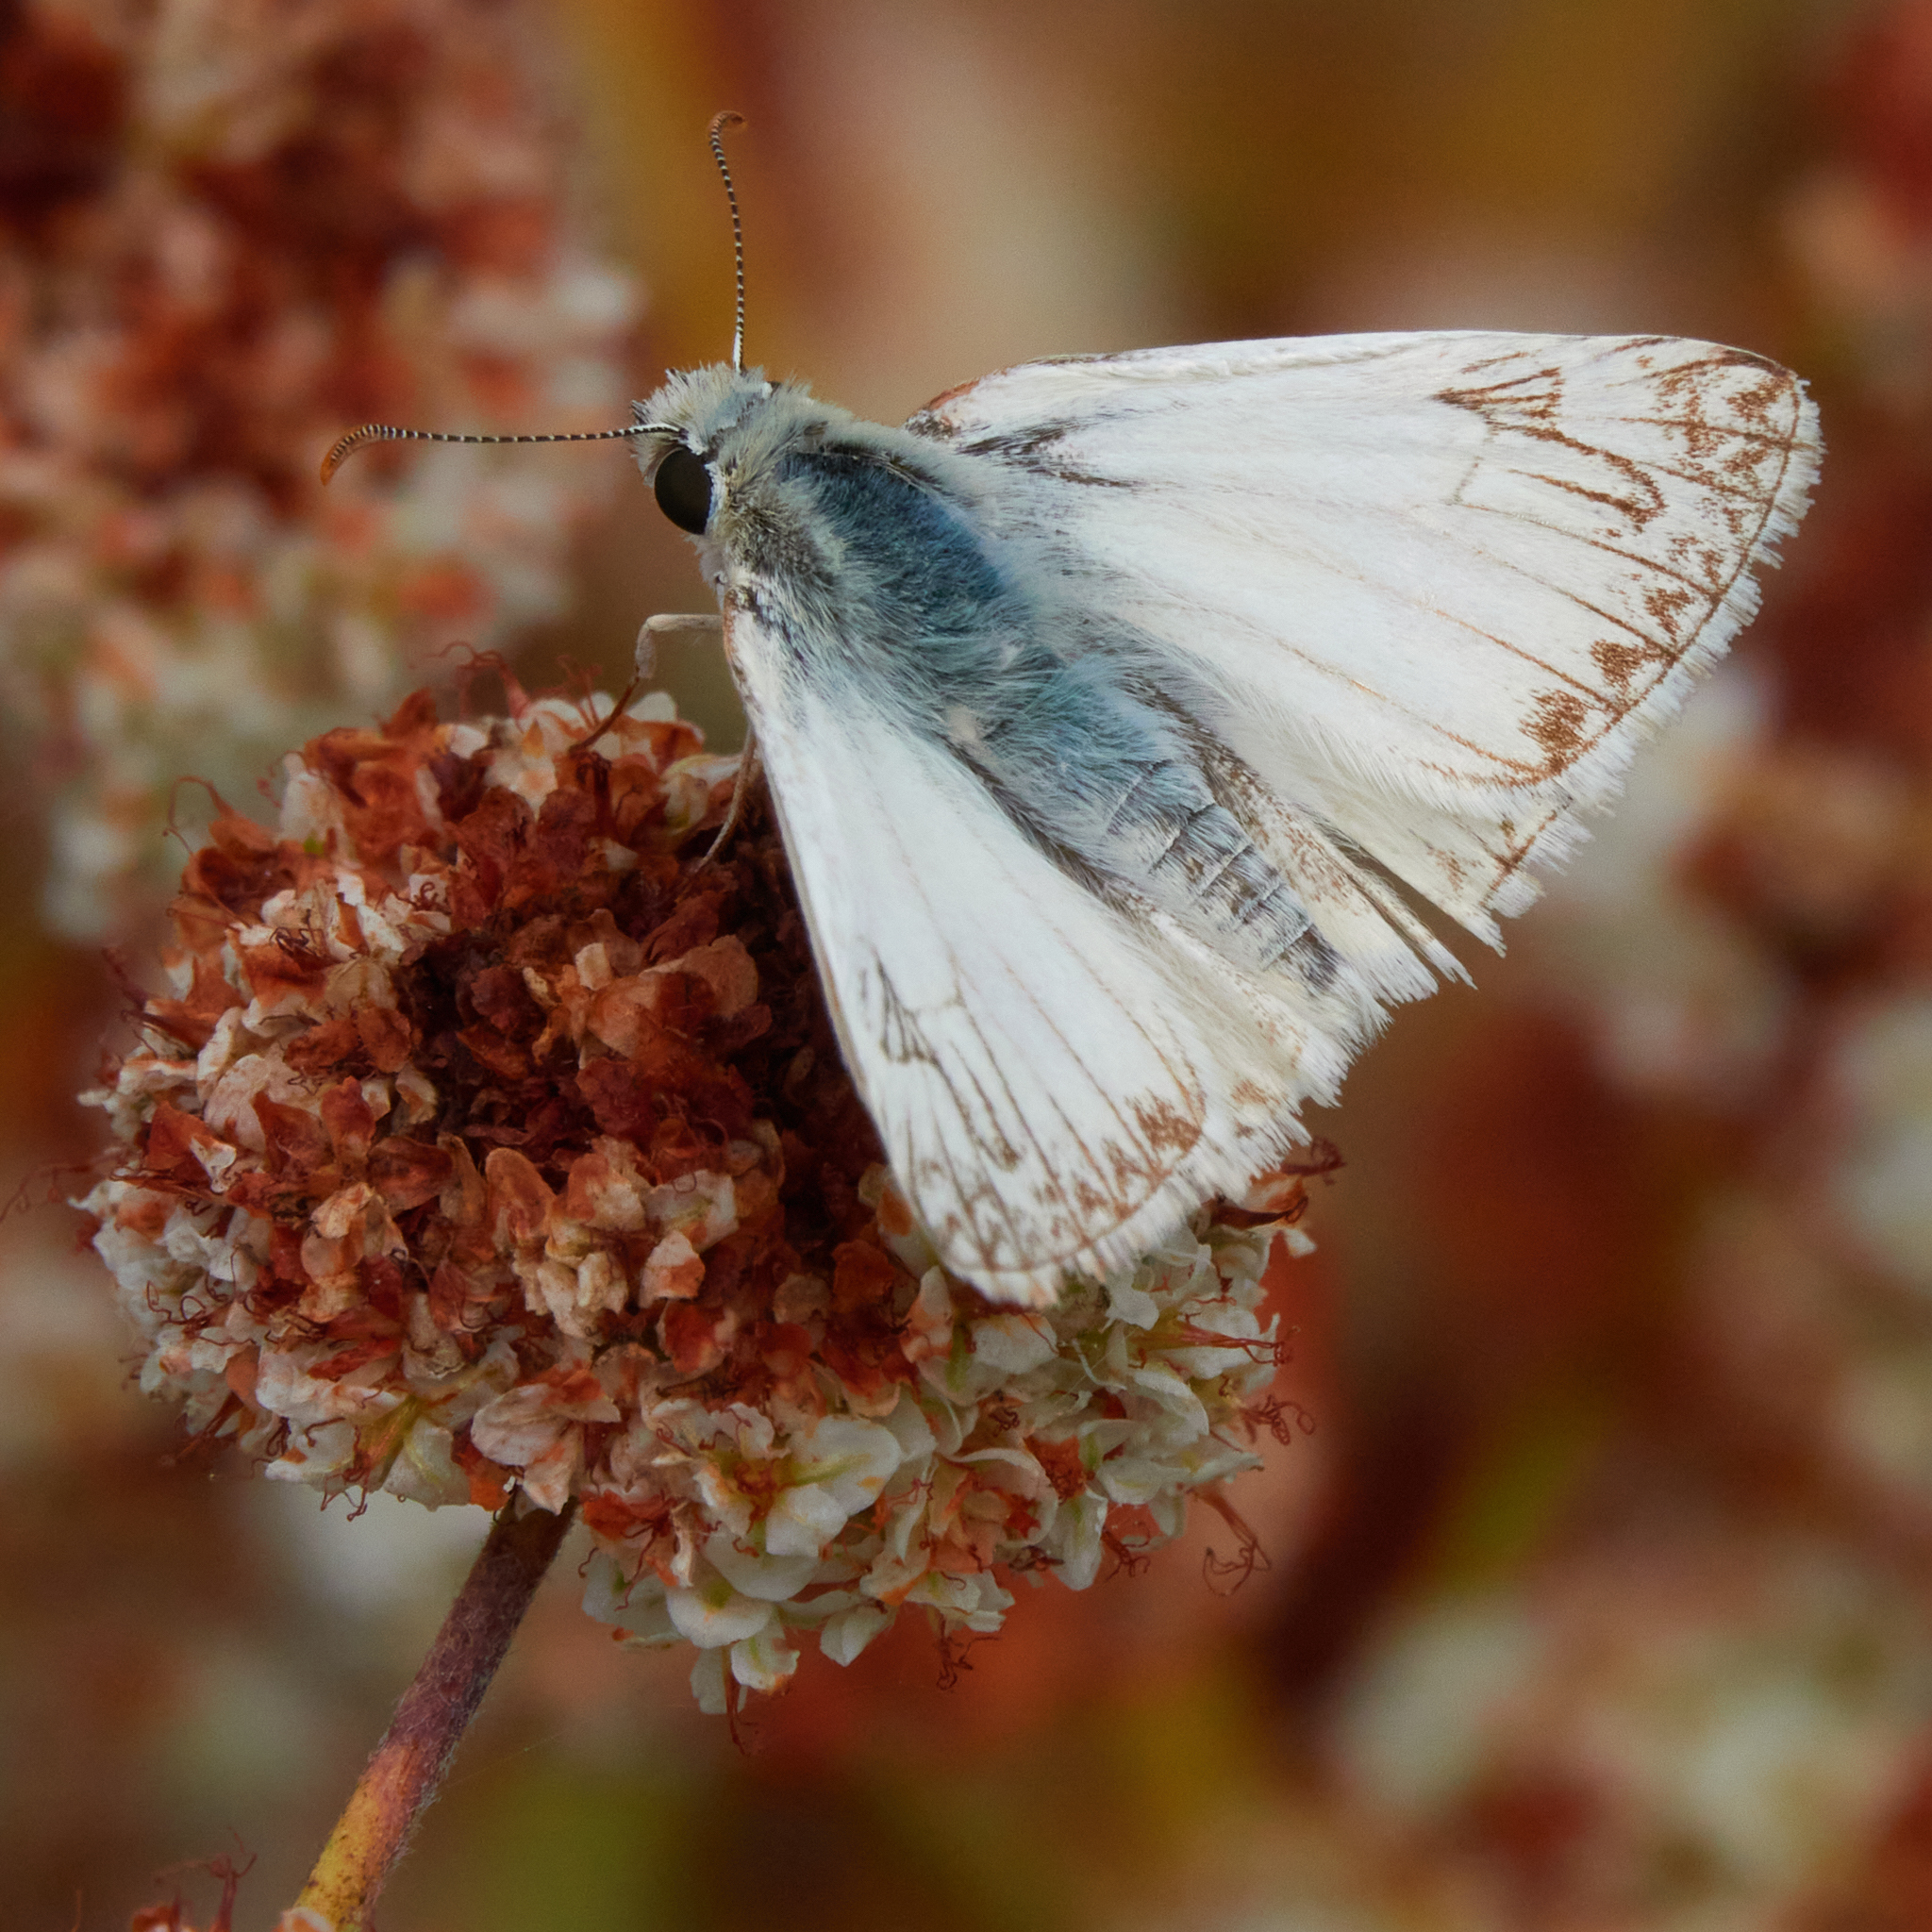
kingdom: Animalia
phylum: Arthropoda
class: Insecta
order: Lepidoptera
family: Hesperiidae
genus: Heliopetes
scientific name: Heliopetes ericetorum
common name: Northern white-skipper
